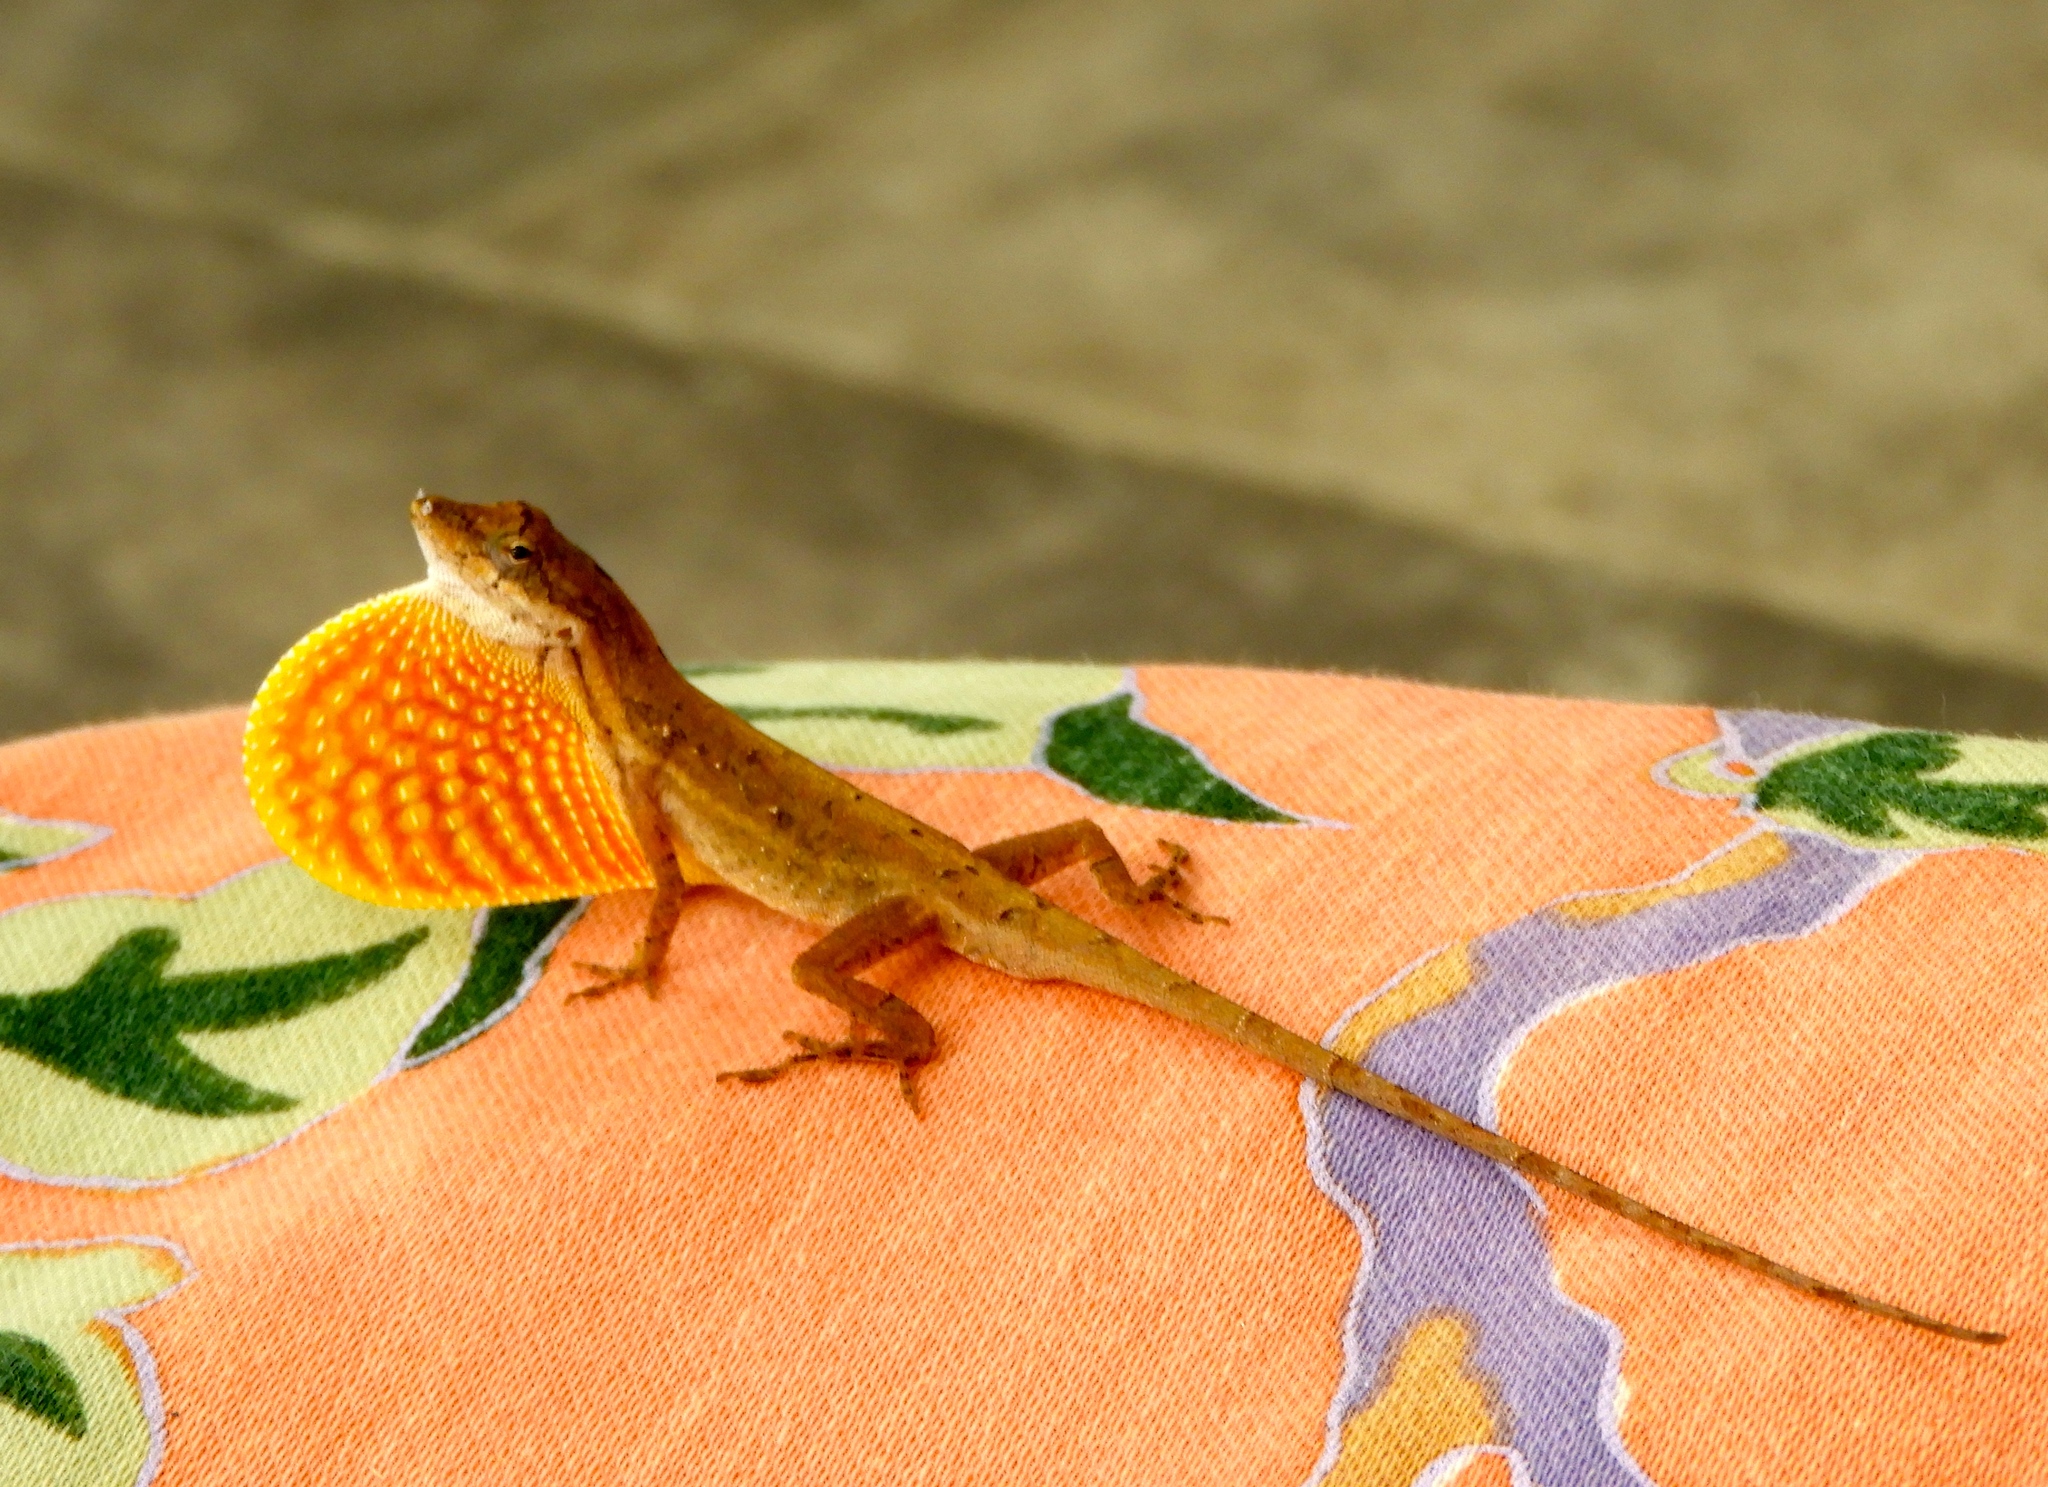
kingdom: Animalia
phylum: Chordata
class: Squamata
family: Dactyloidae
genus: Anolis
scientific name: Anolis nebulosus
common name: Clouded anole
